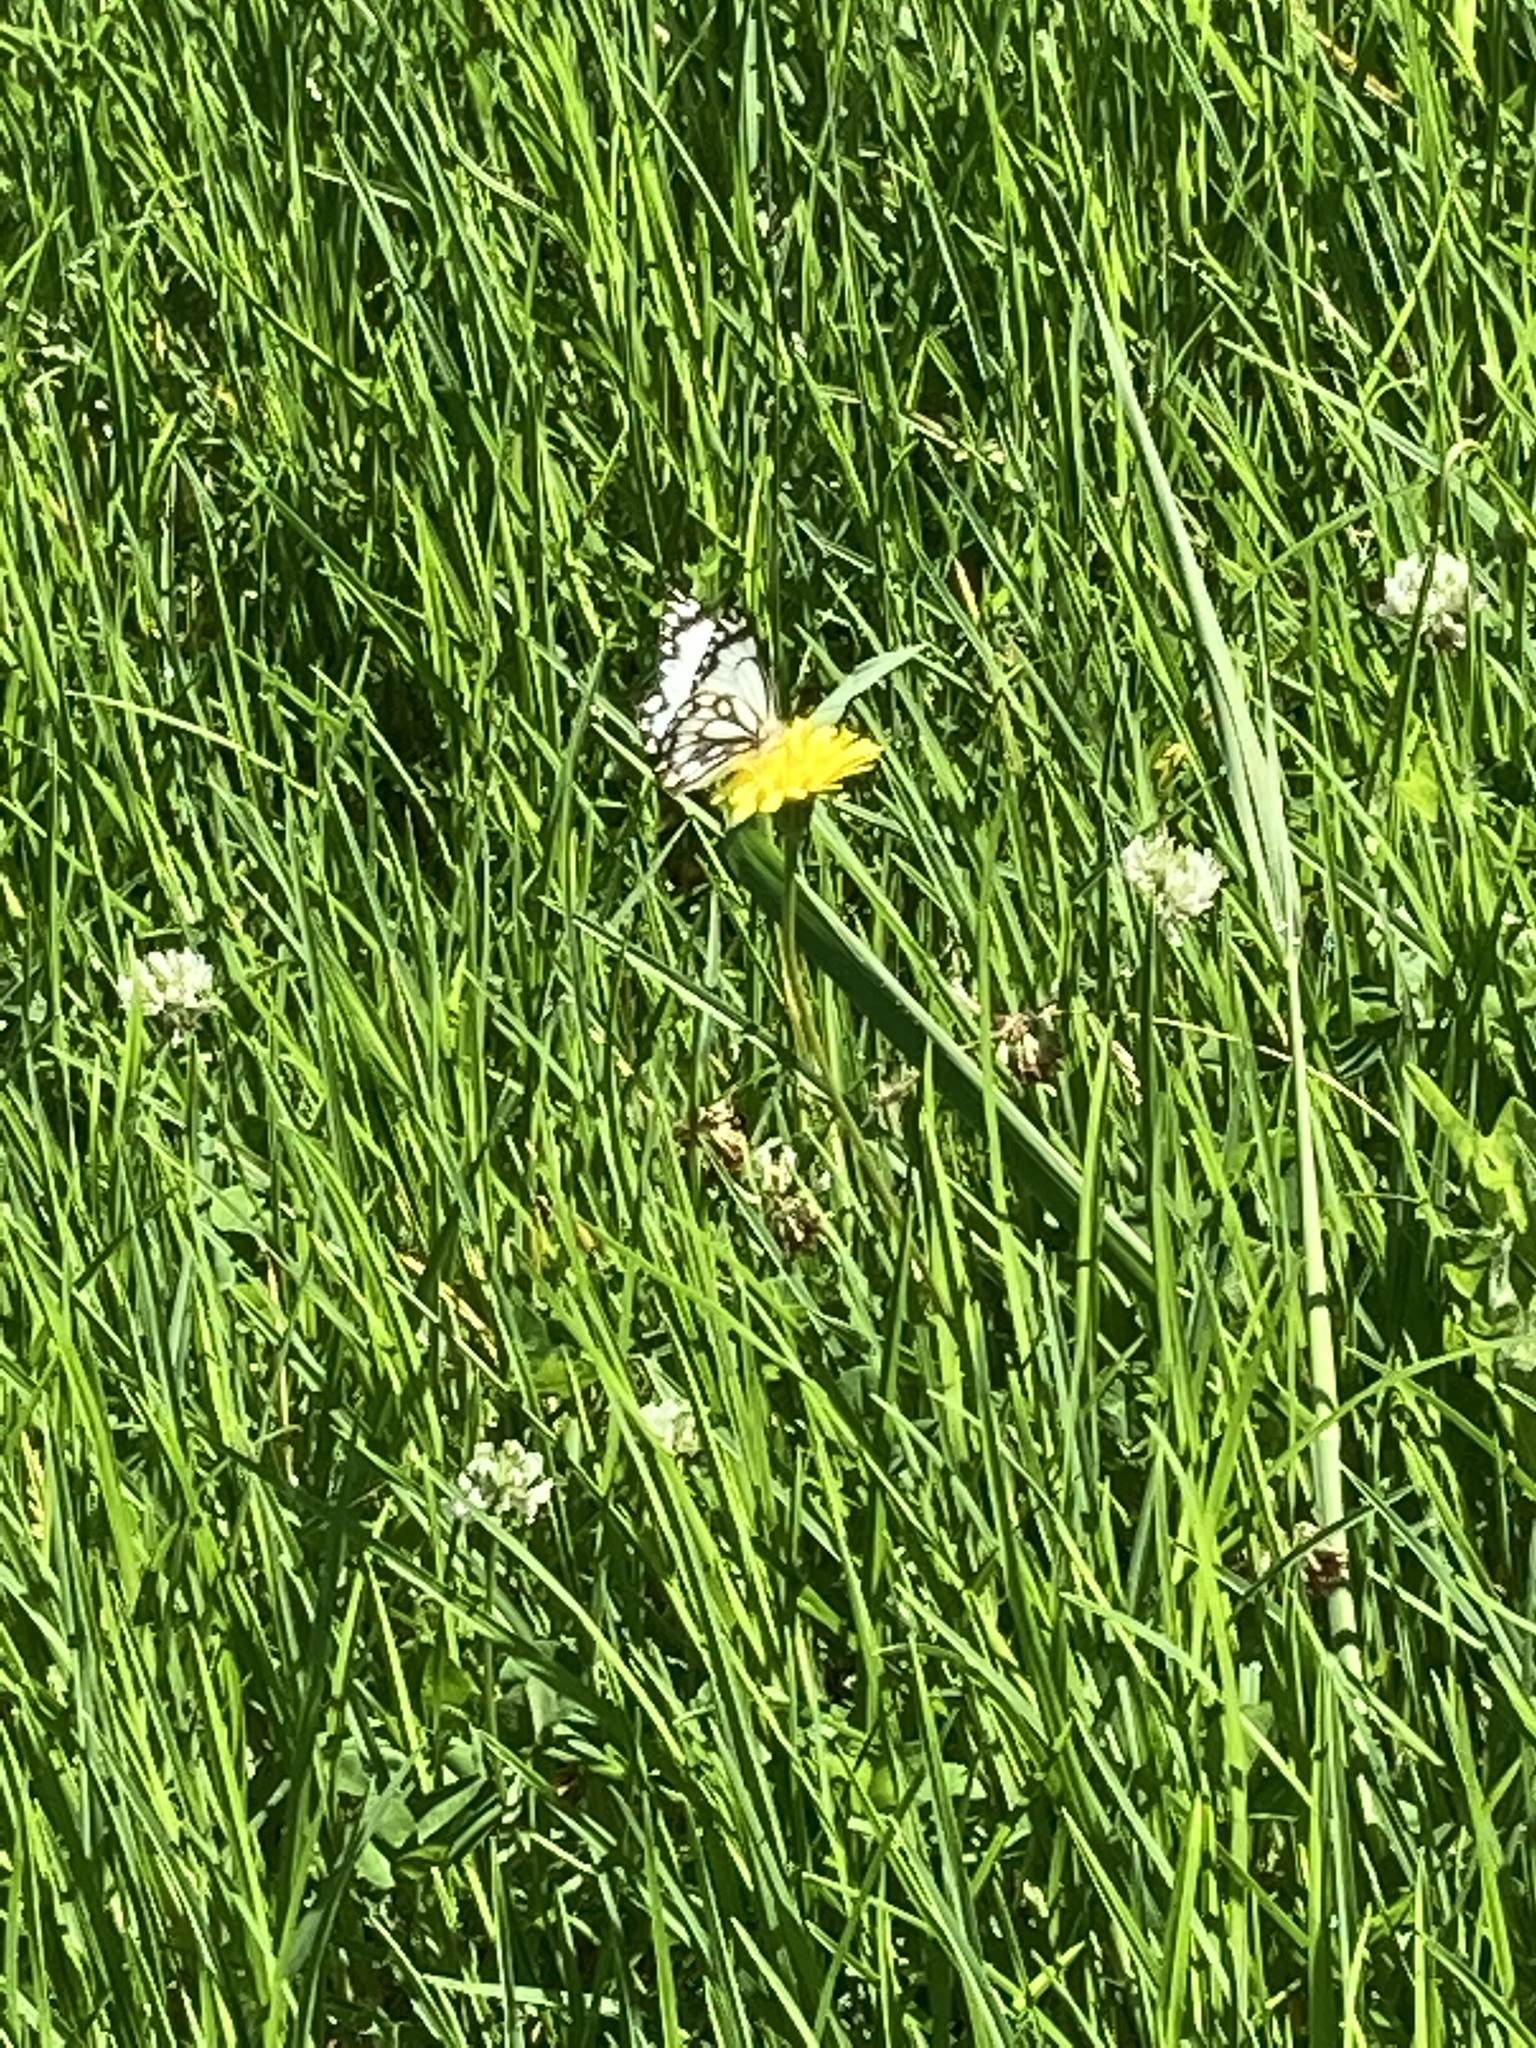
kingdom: Animalia
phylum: Arthropoda
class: Insecta
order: Lepidoptera
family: Pieridae
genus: Belenois
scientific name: Belenois java
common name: Caper white
